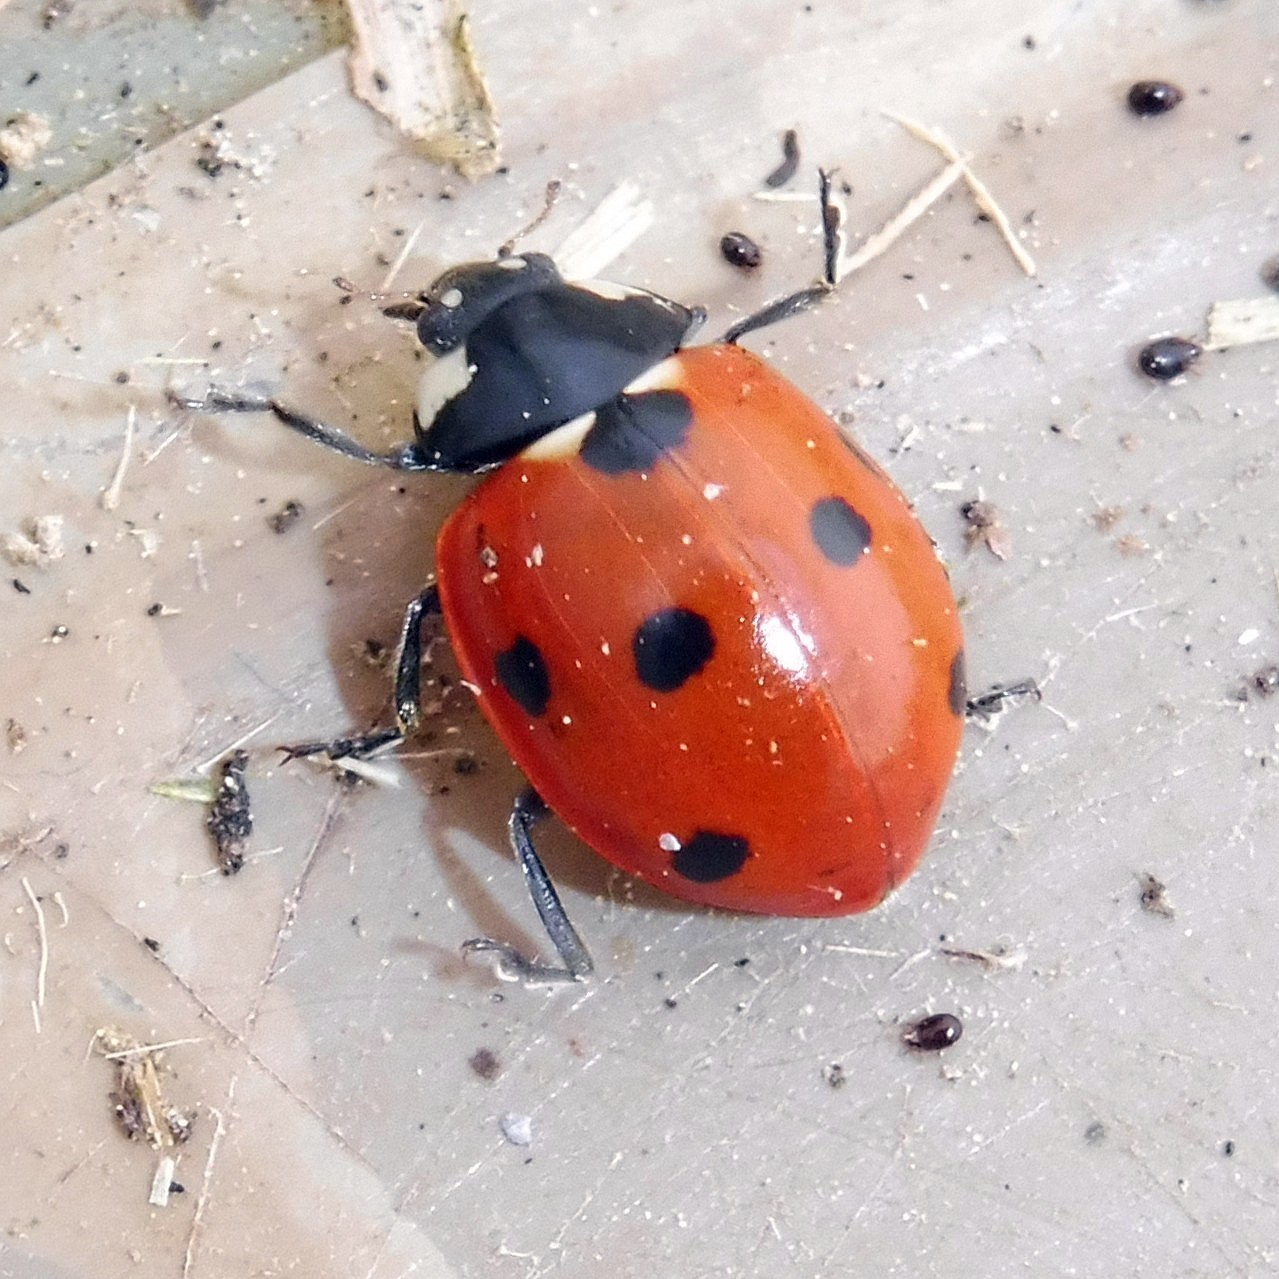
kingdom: Animalia
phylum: Arthropoda
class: Insecta
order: Coleoptera
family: Coccinellidae
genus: Coccinella
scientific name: Coccinella septempunctata
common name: Sevenspotted lady beetle
